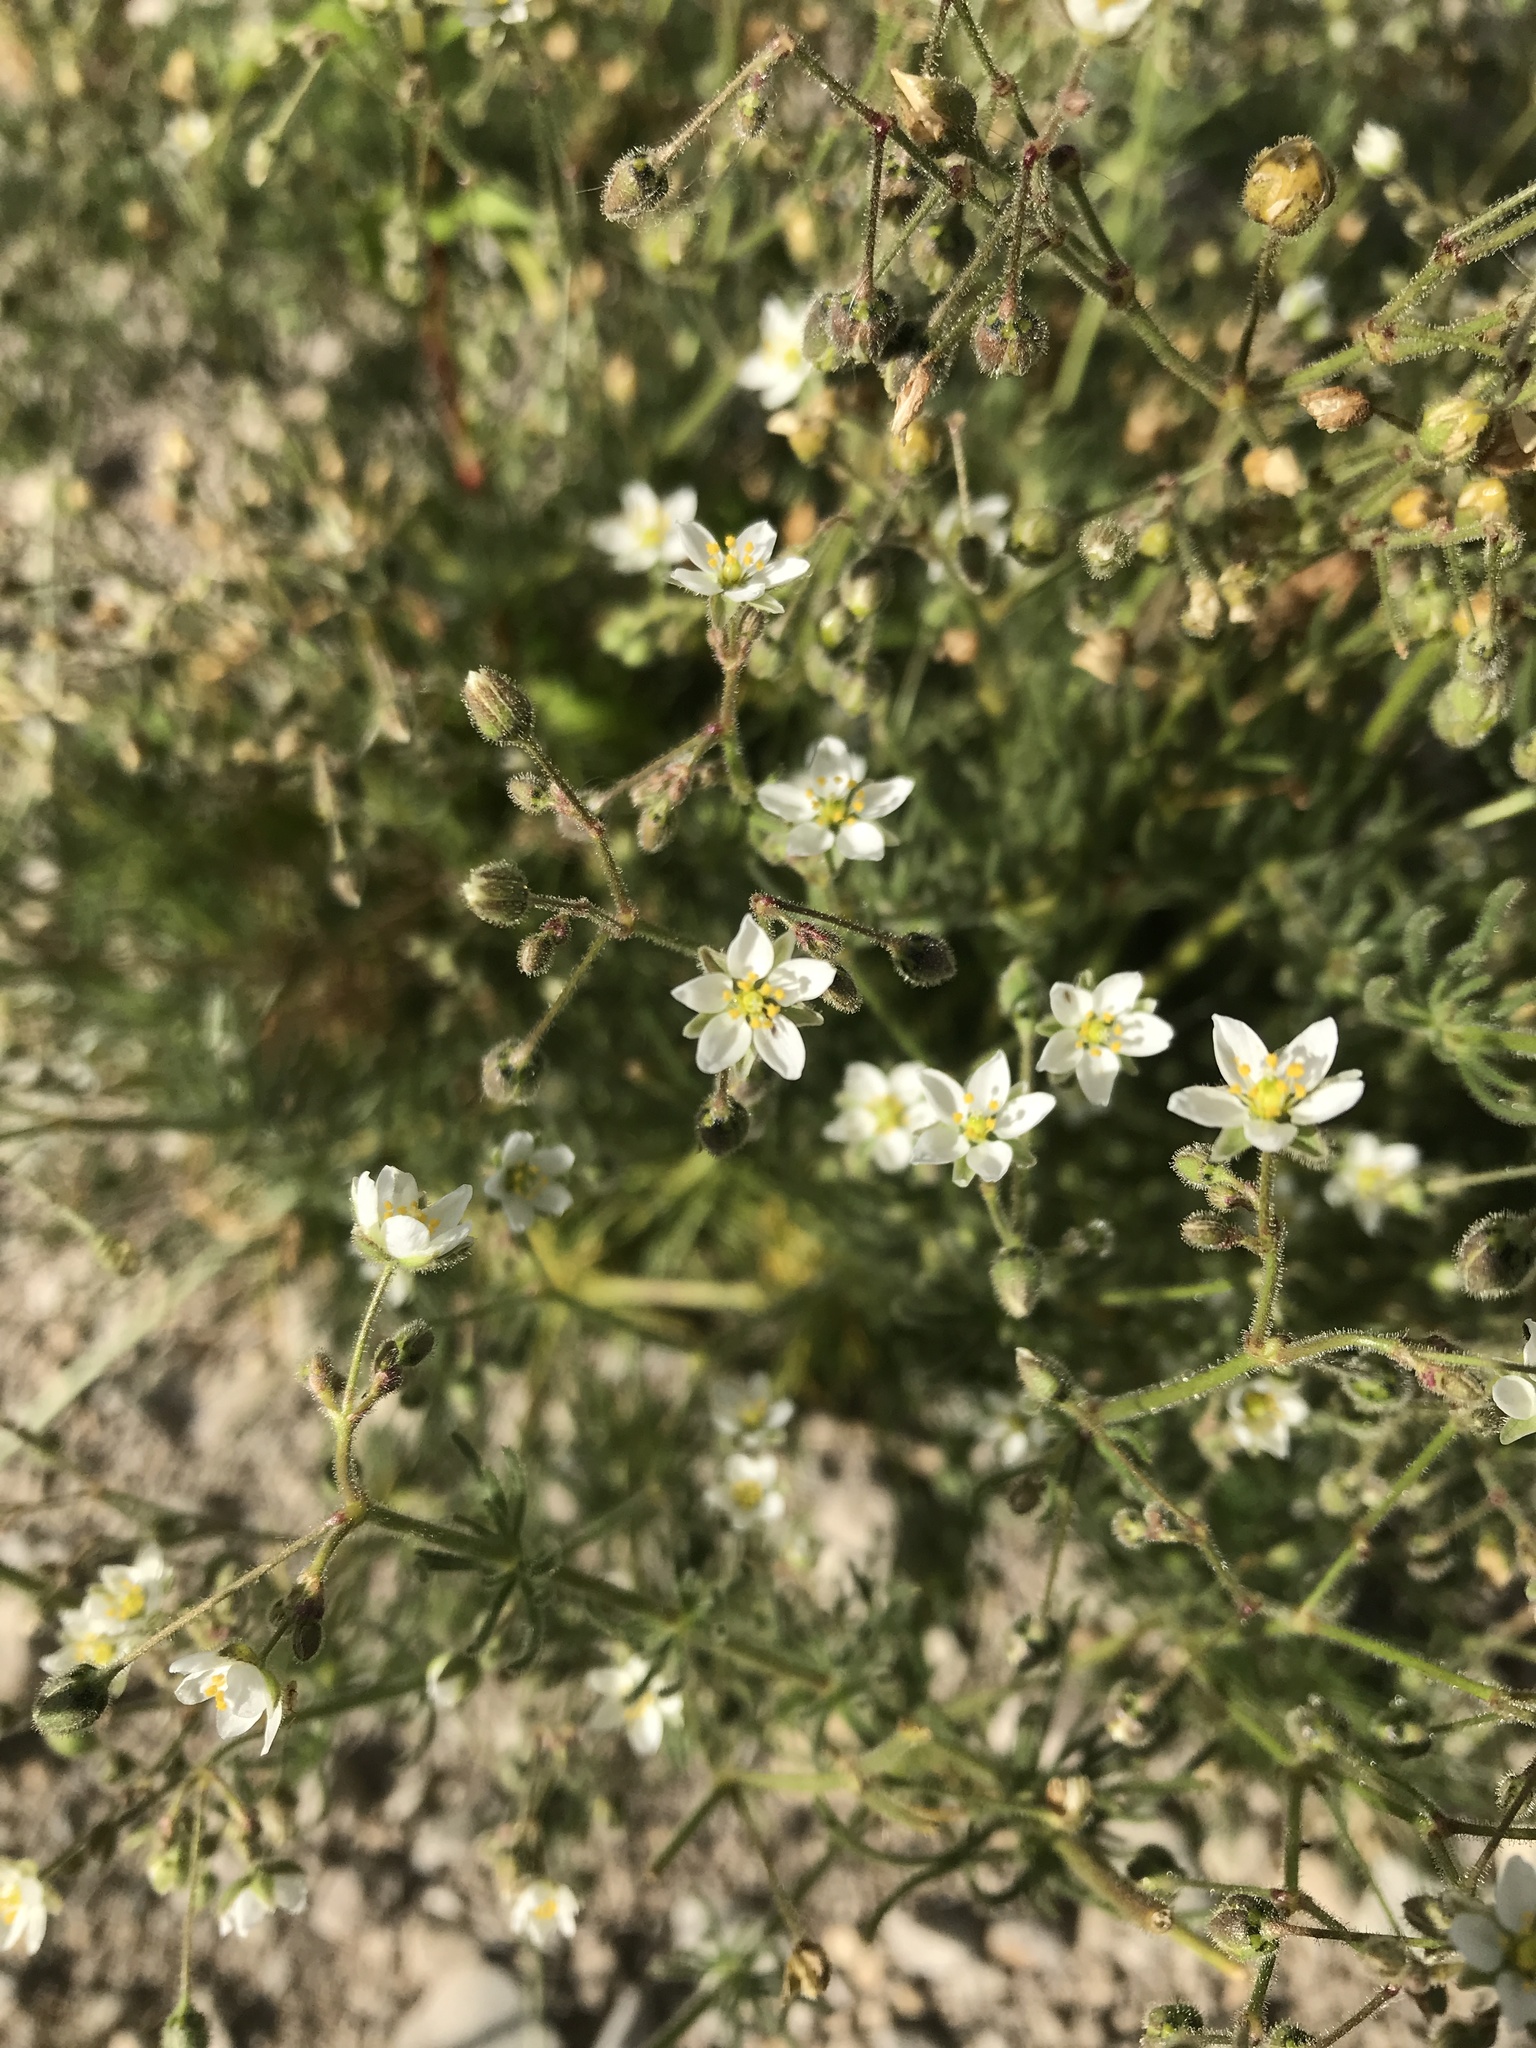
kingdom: Plantae
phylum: Tracheophyta
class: Magnoliopsida
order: Caryophyllales
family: Caryophyllaceae
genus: Spergula
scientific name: Spergula arvensis
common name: Corn spurrey
